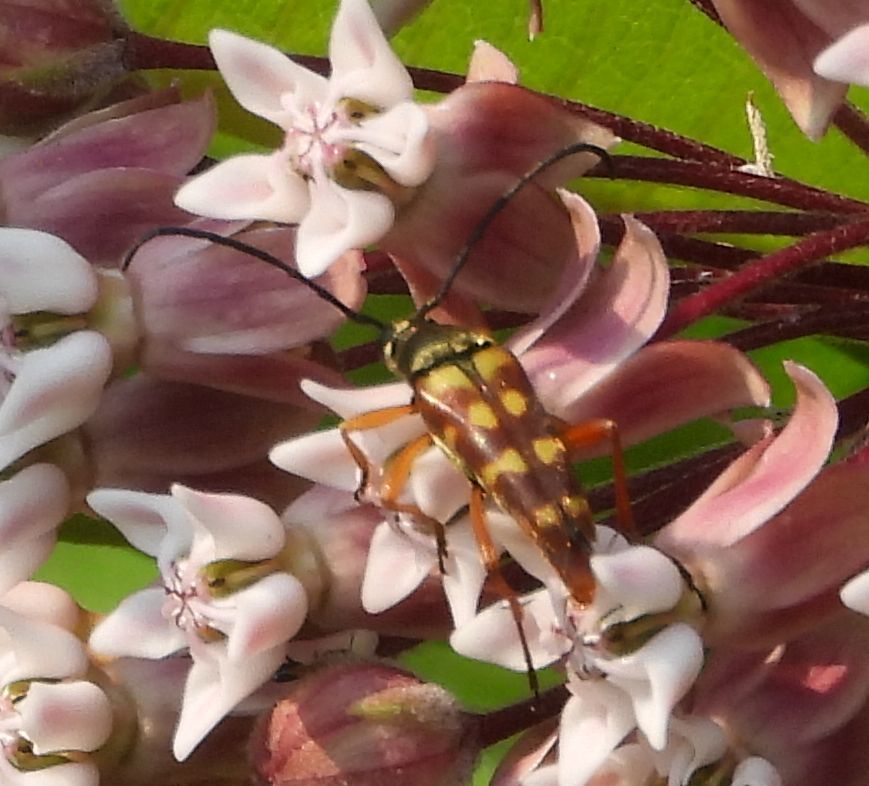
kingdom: Animalia
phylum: Arthropoda
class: Insecta
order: Coleoptera
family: Cerambycidae
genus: Typocerus
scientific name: Typocerus velutinus
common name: Banded longhorn beetle
